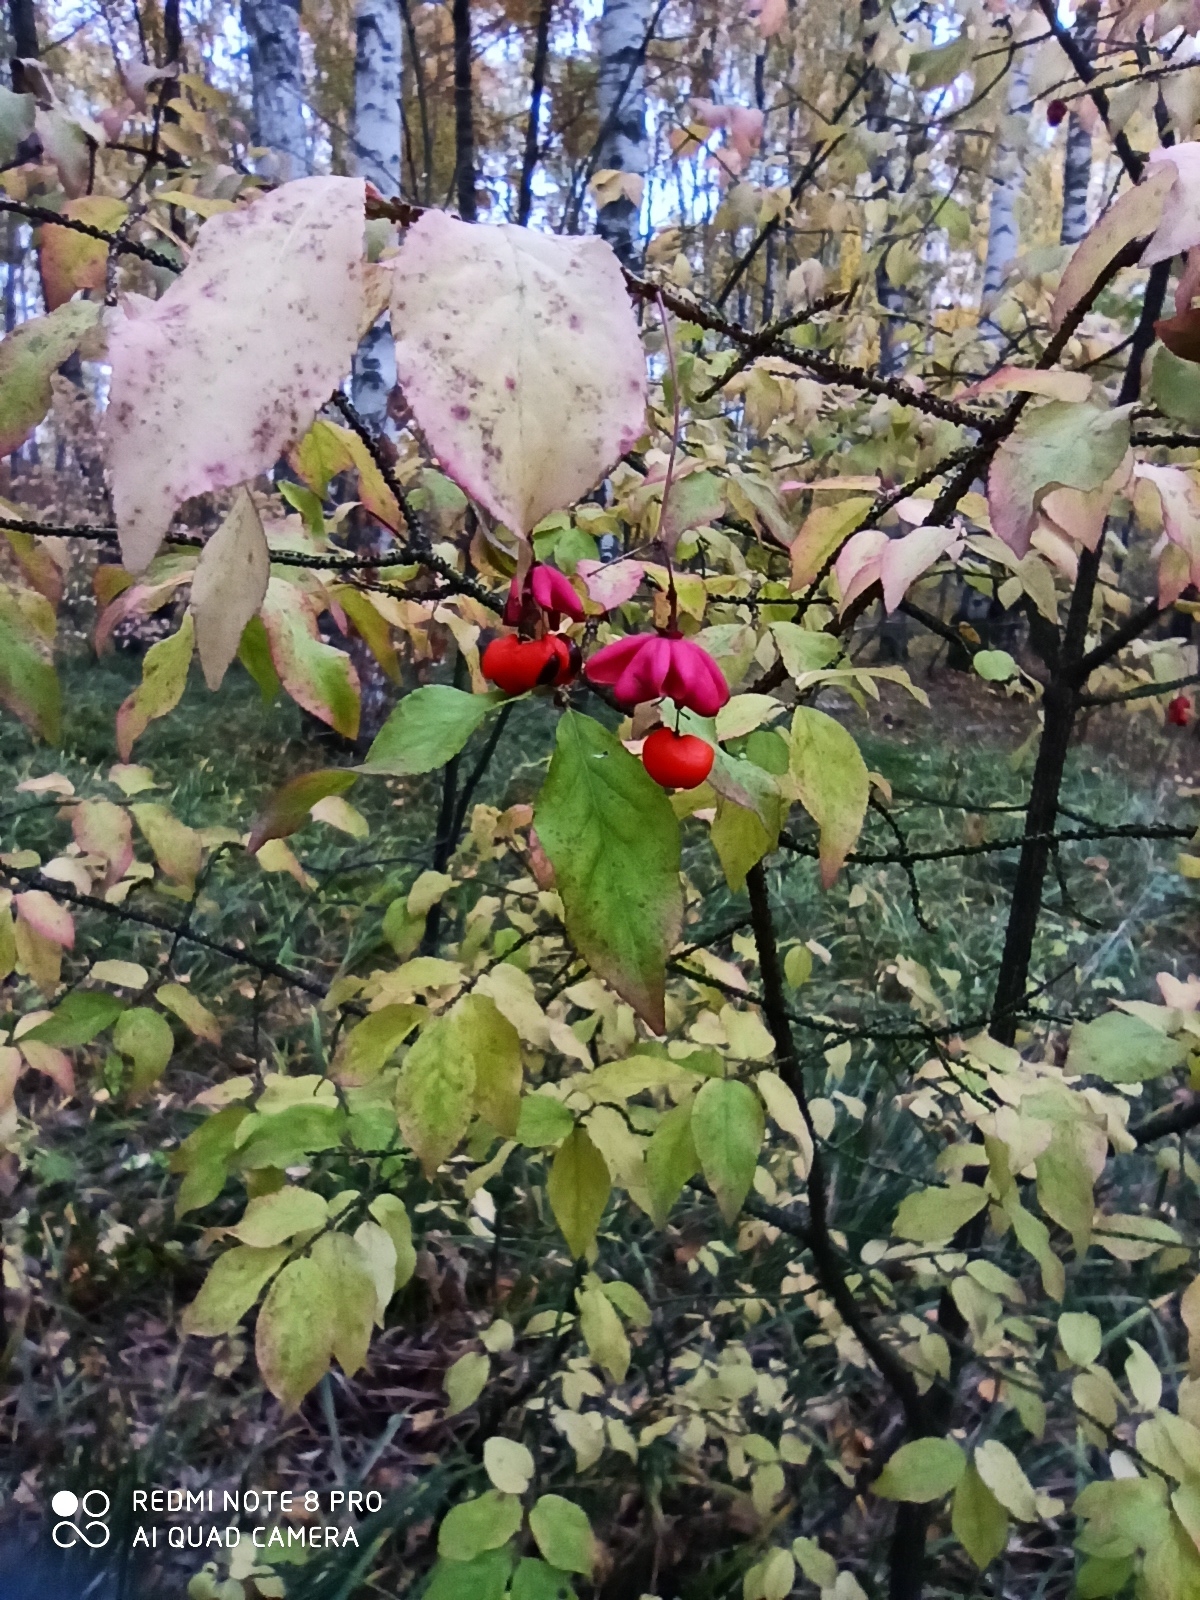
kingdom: Plantae
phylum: Tracheophyta
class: Magnoliopsida
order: Celastrales
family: Celastraceae
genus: Euonymus
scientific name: Euonymus verrucosus
